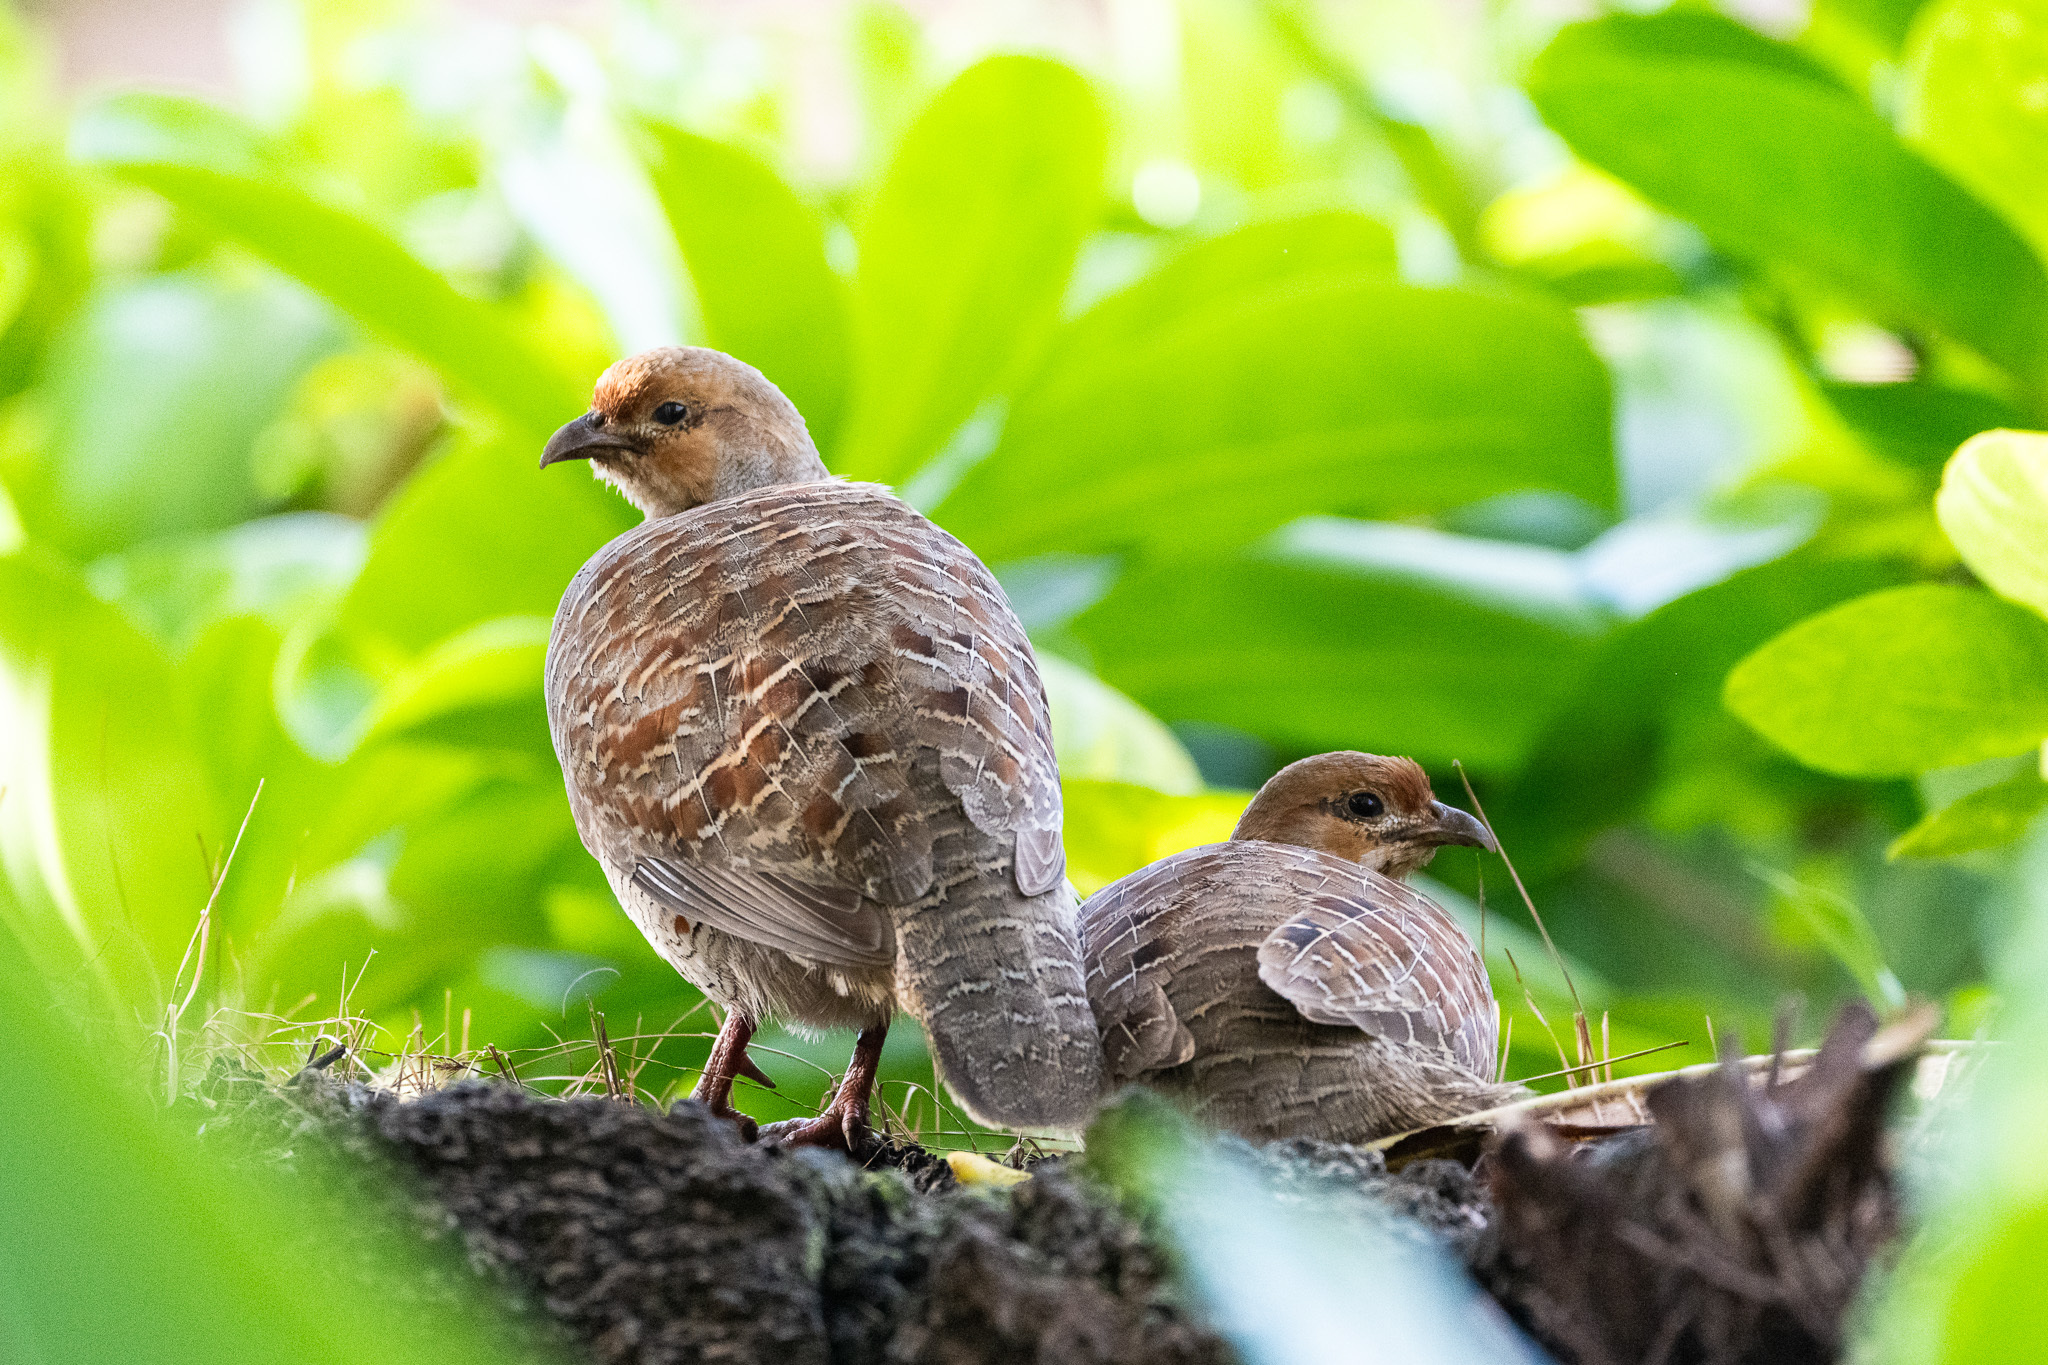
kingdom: Animalia
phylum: Chordata
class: Aves
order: Galliformes
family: Phasianidae
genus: Ortygornis
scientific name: Ortygornis pondicerianus
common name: Grey francolin
